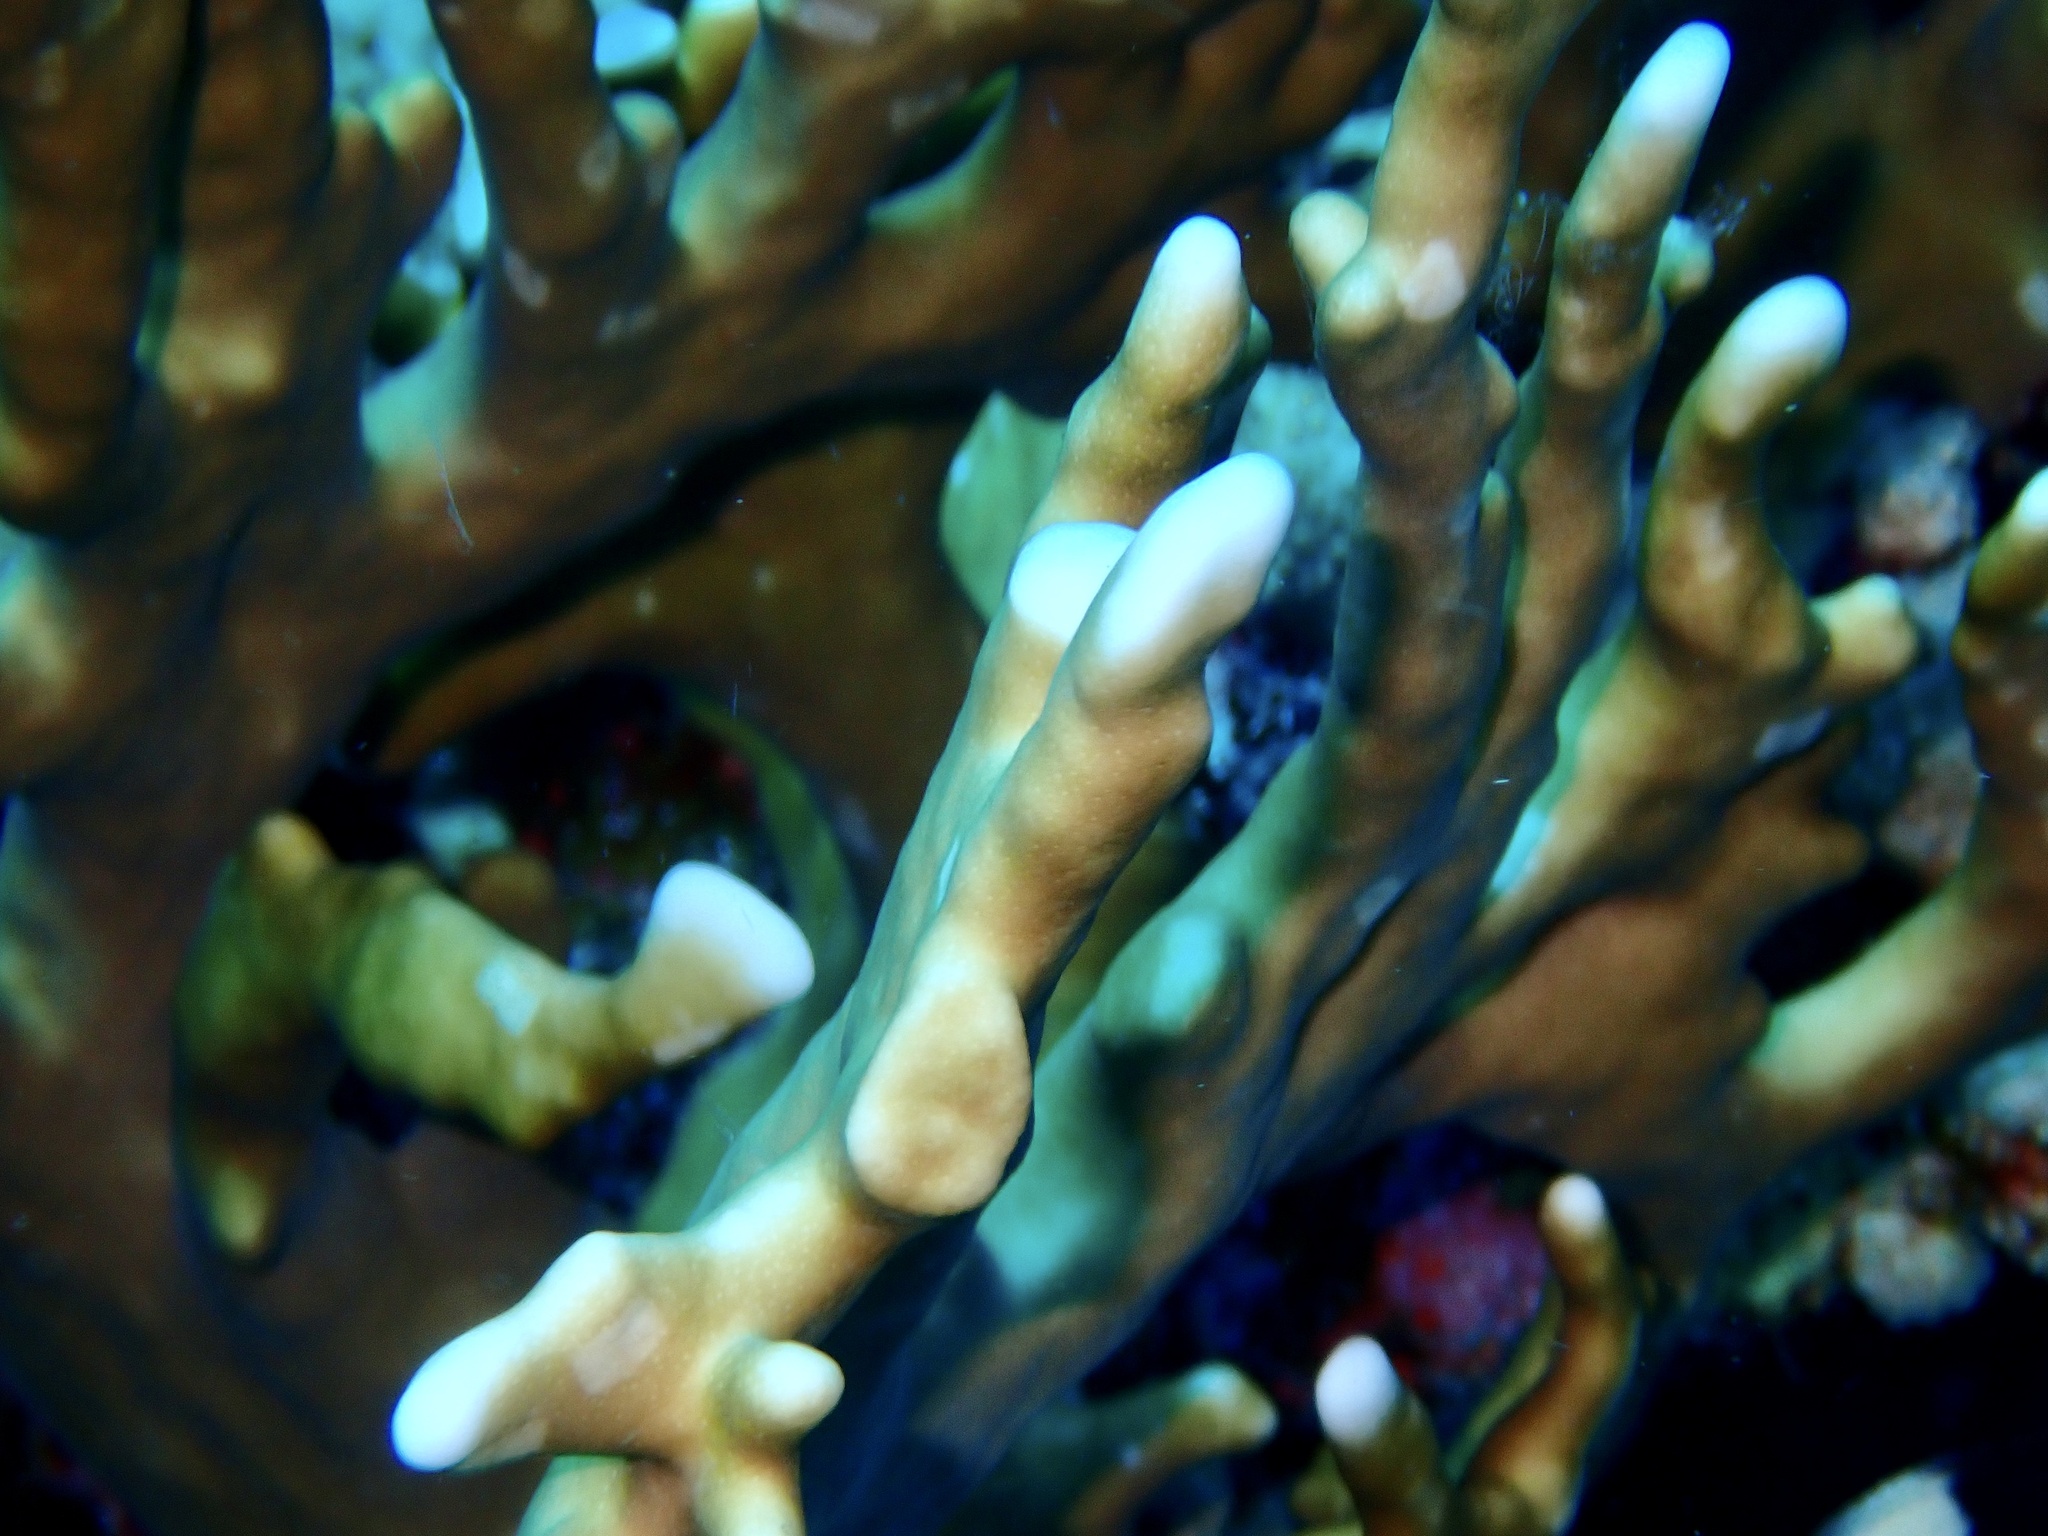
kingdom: Animalia
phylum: Cnidaria
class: Hydrozoa
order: Anthoathecata
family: Milleporidae
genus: Millepora
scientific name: Millepora dichotoma
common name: Ramified fire coral
